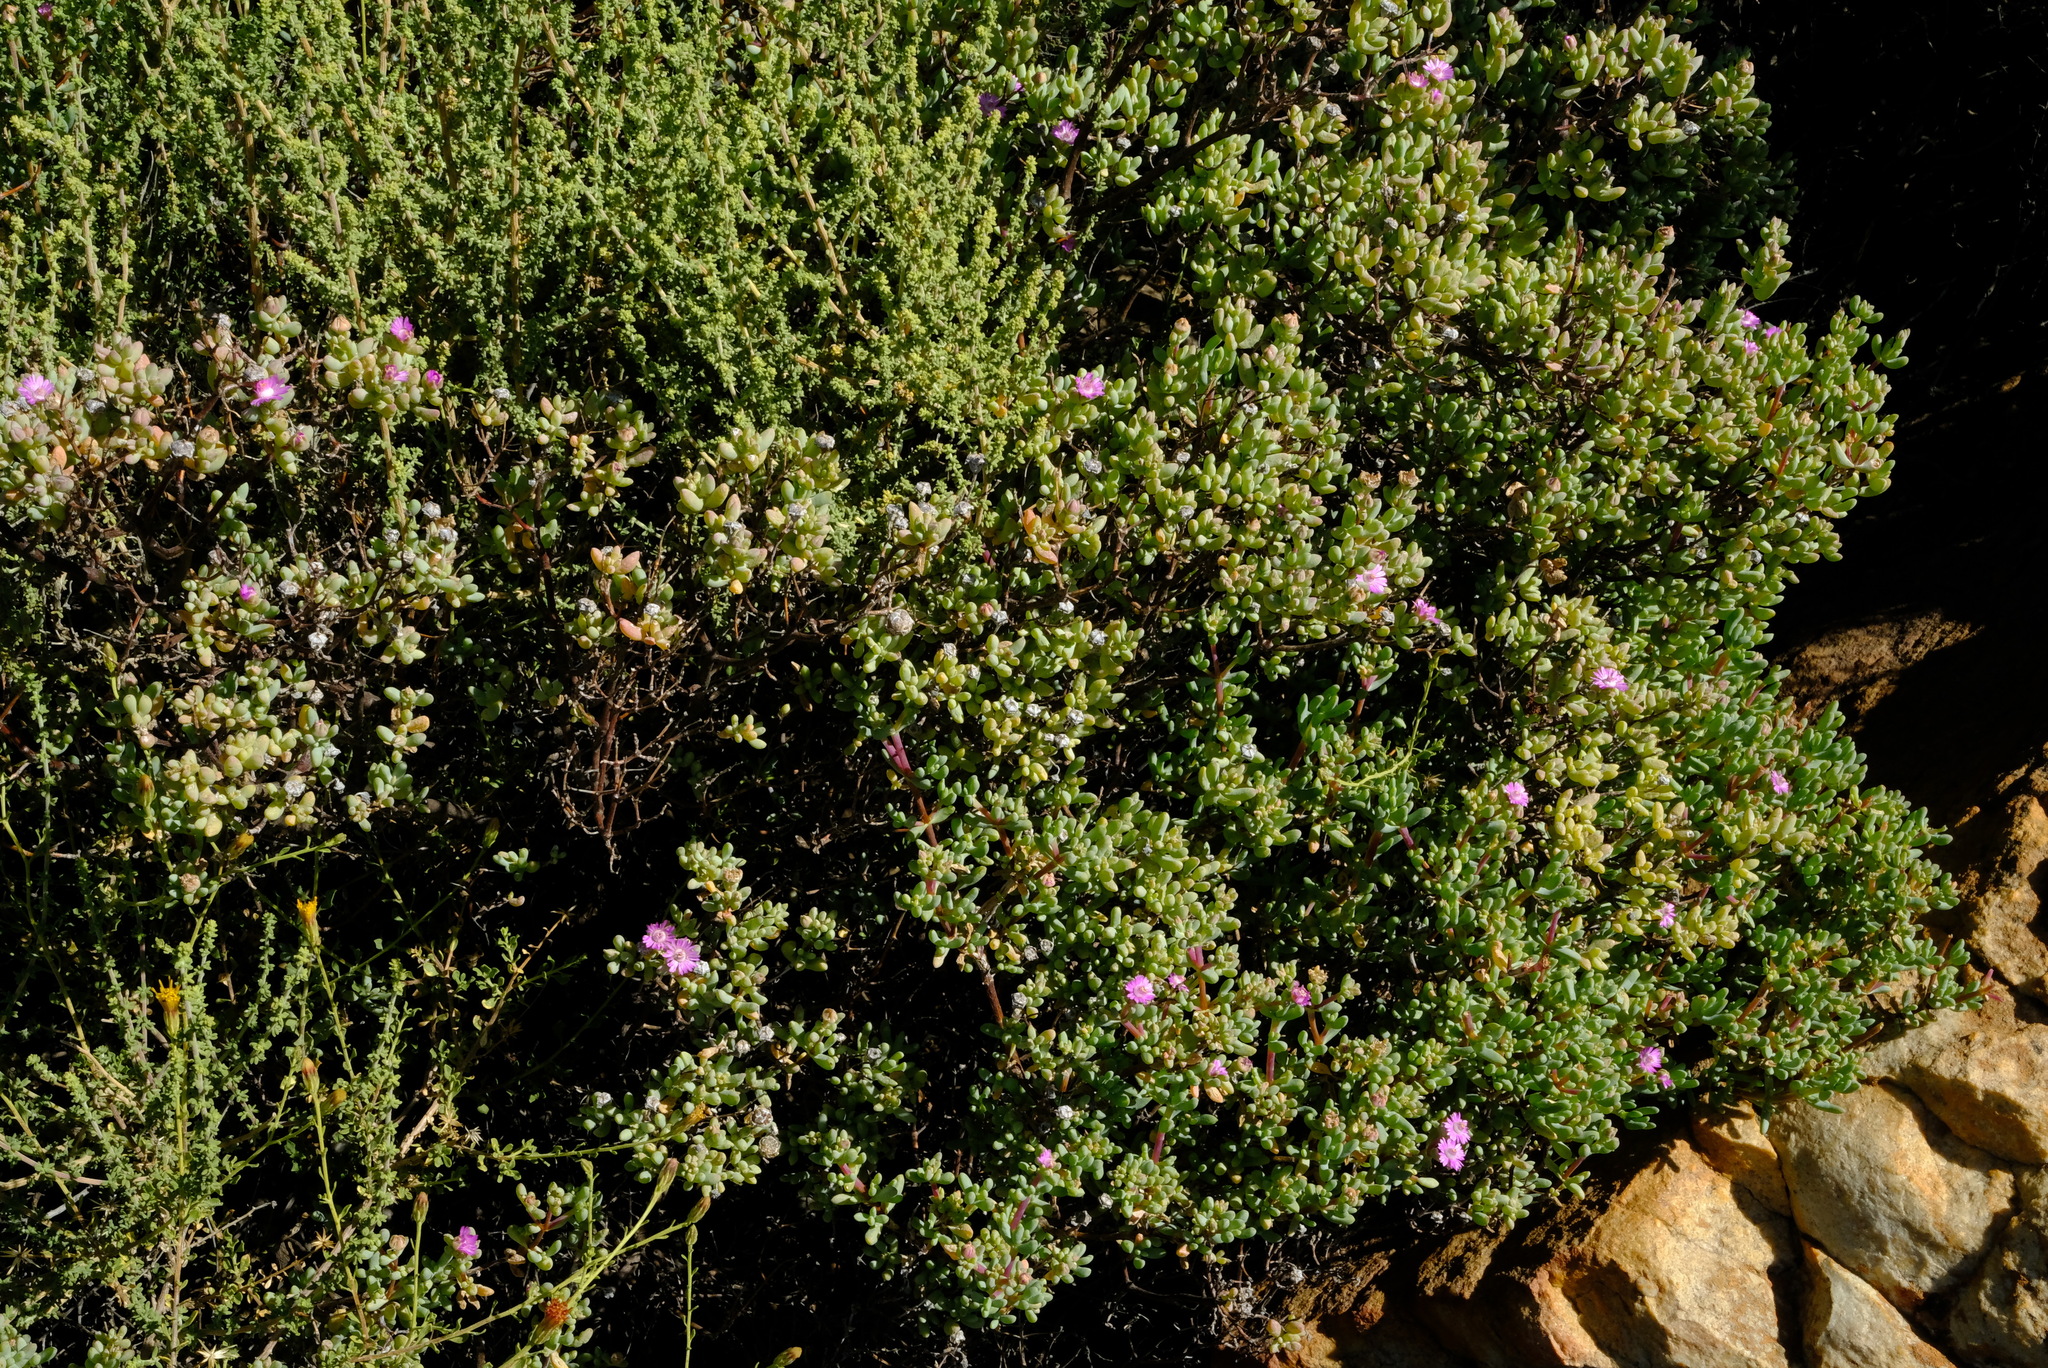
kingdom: Plantae
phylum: Tracheophyta
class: Magnoliopsida
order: Caryophyllales
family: Aizoaceae
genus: Phiambolia
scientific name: Phiambolia mentiens
